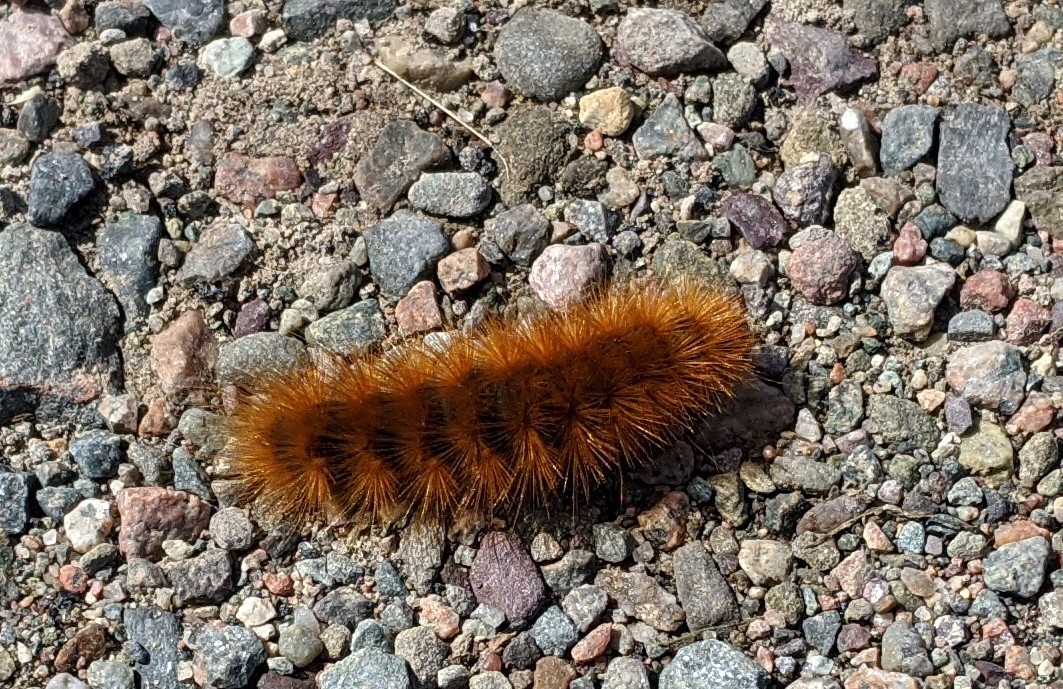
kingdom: Animalia
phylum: Arthropoda
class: Insecta
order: Lepidoptera
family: Erebidae
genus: Estigmene
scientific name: Estigmene acrea
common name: Salt marsh moth
